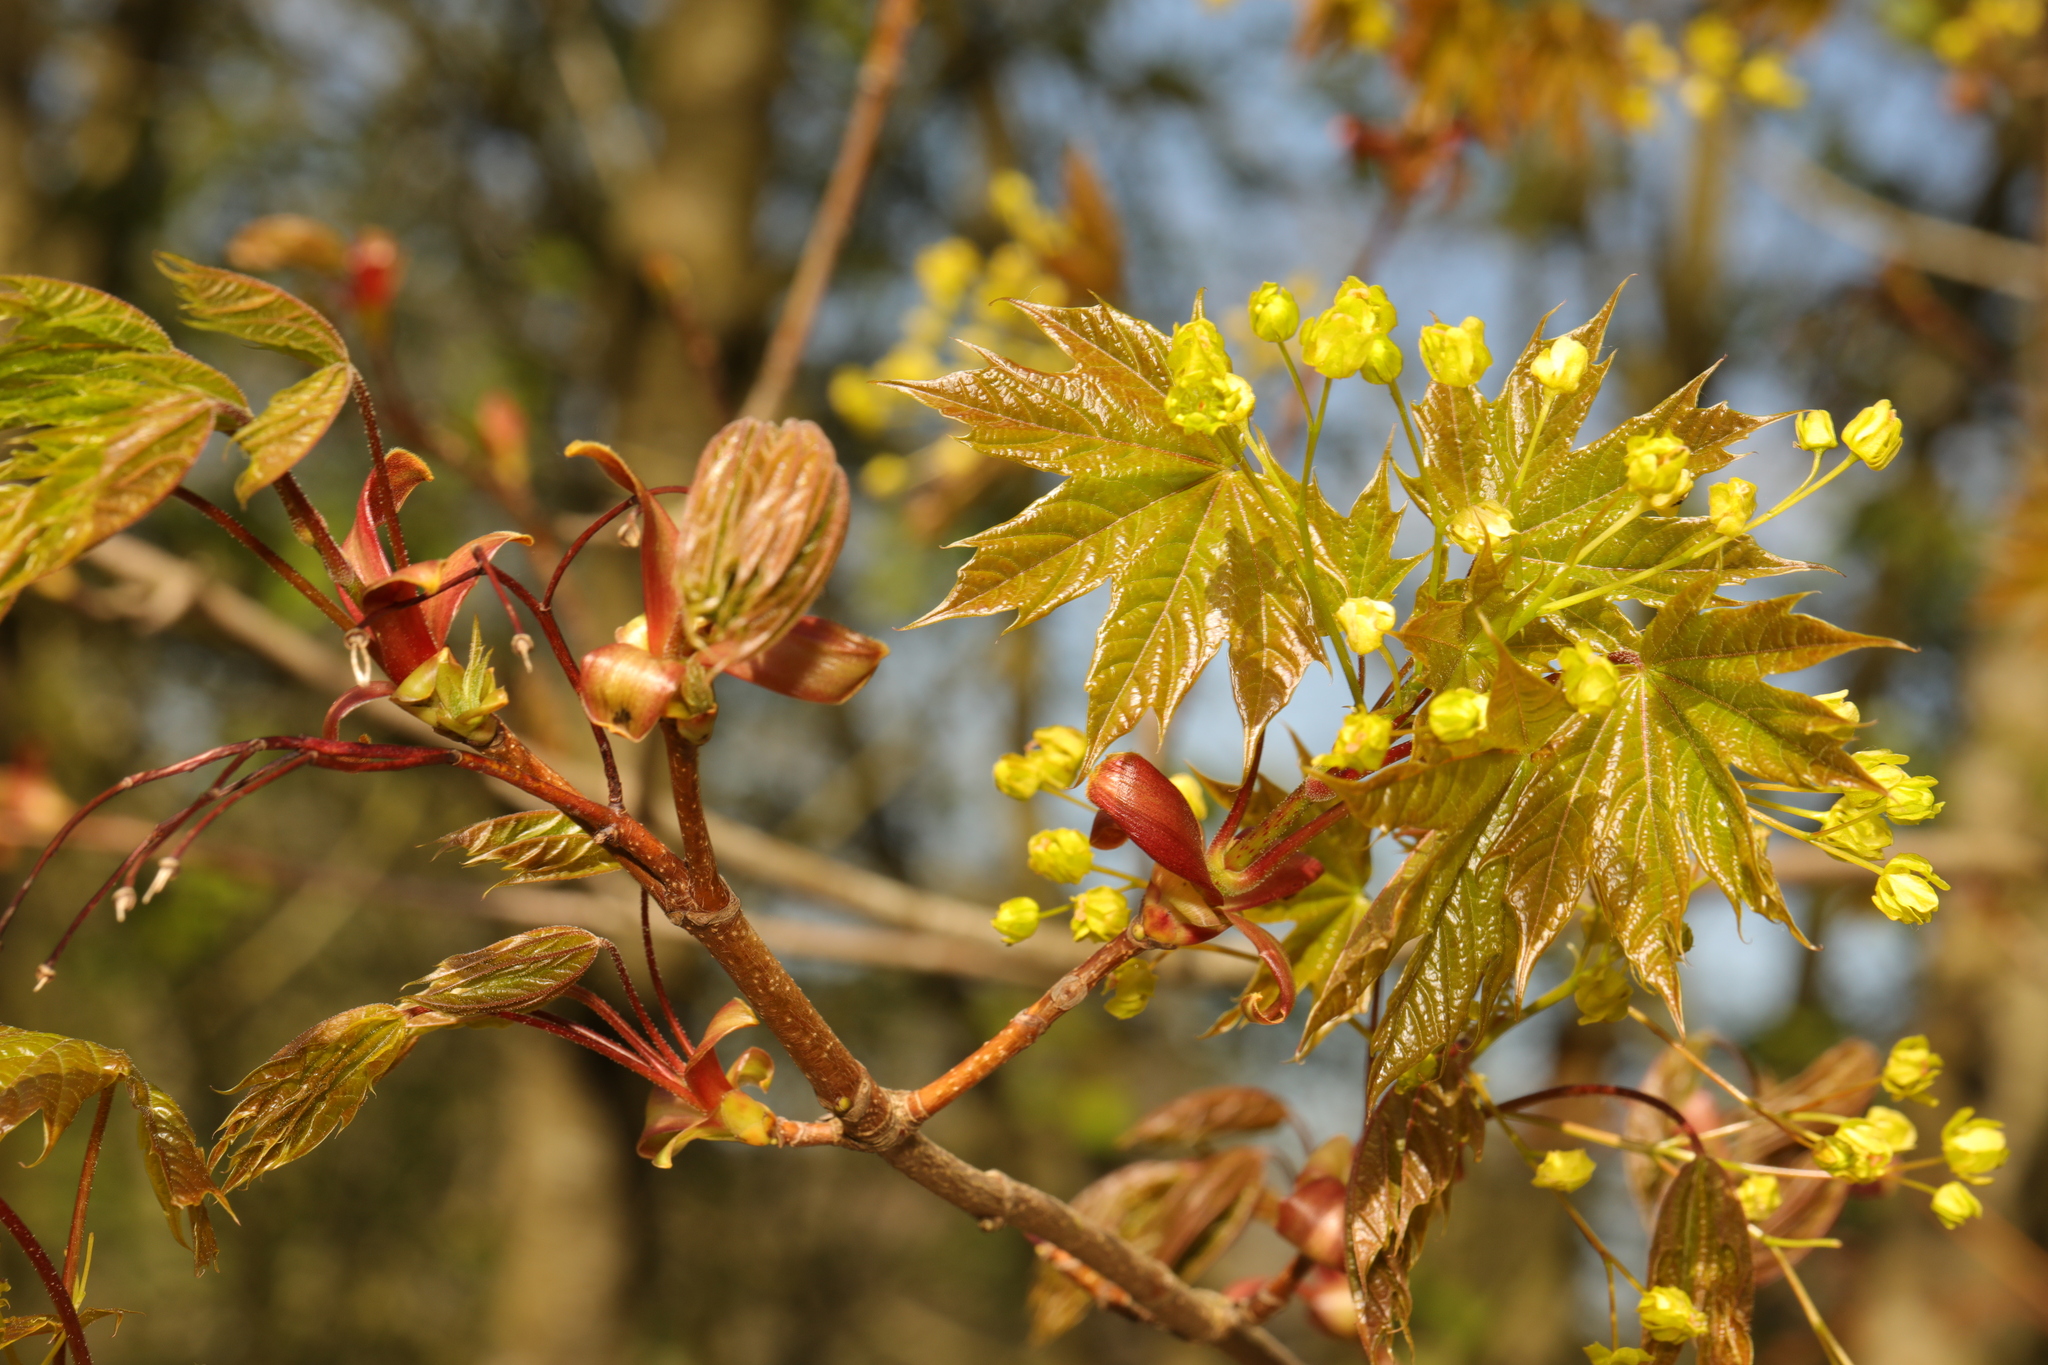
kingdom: Plantae
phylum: Tracheophyta
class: Magnoliopsida
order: Sapindales
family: Sapindaceae
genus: Acer
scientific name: Acer platanoides
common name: Norway maple
